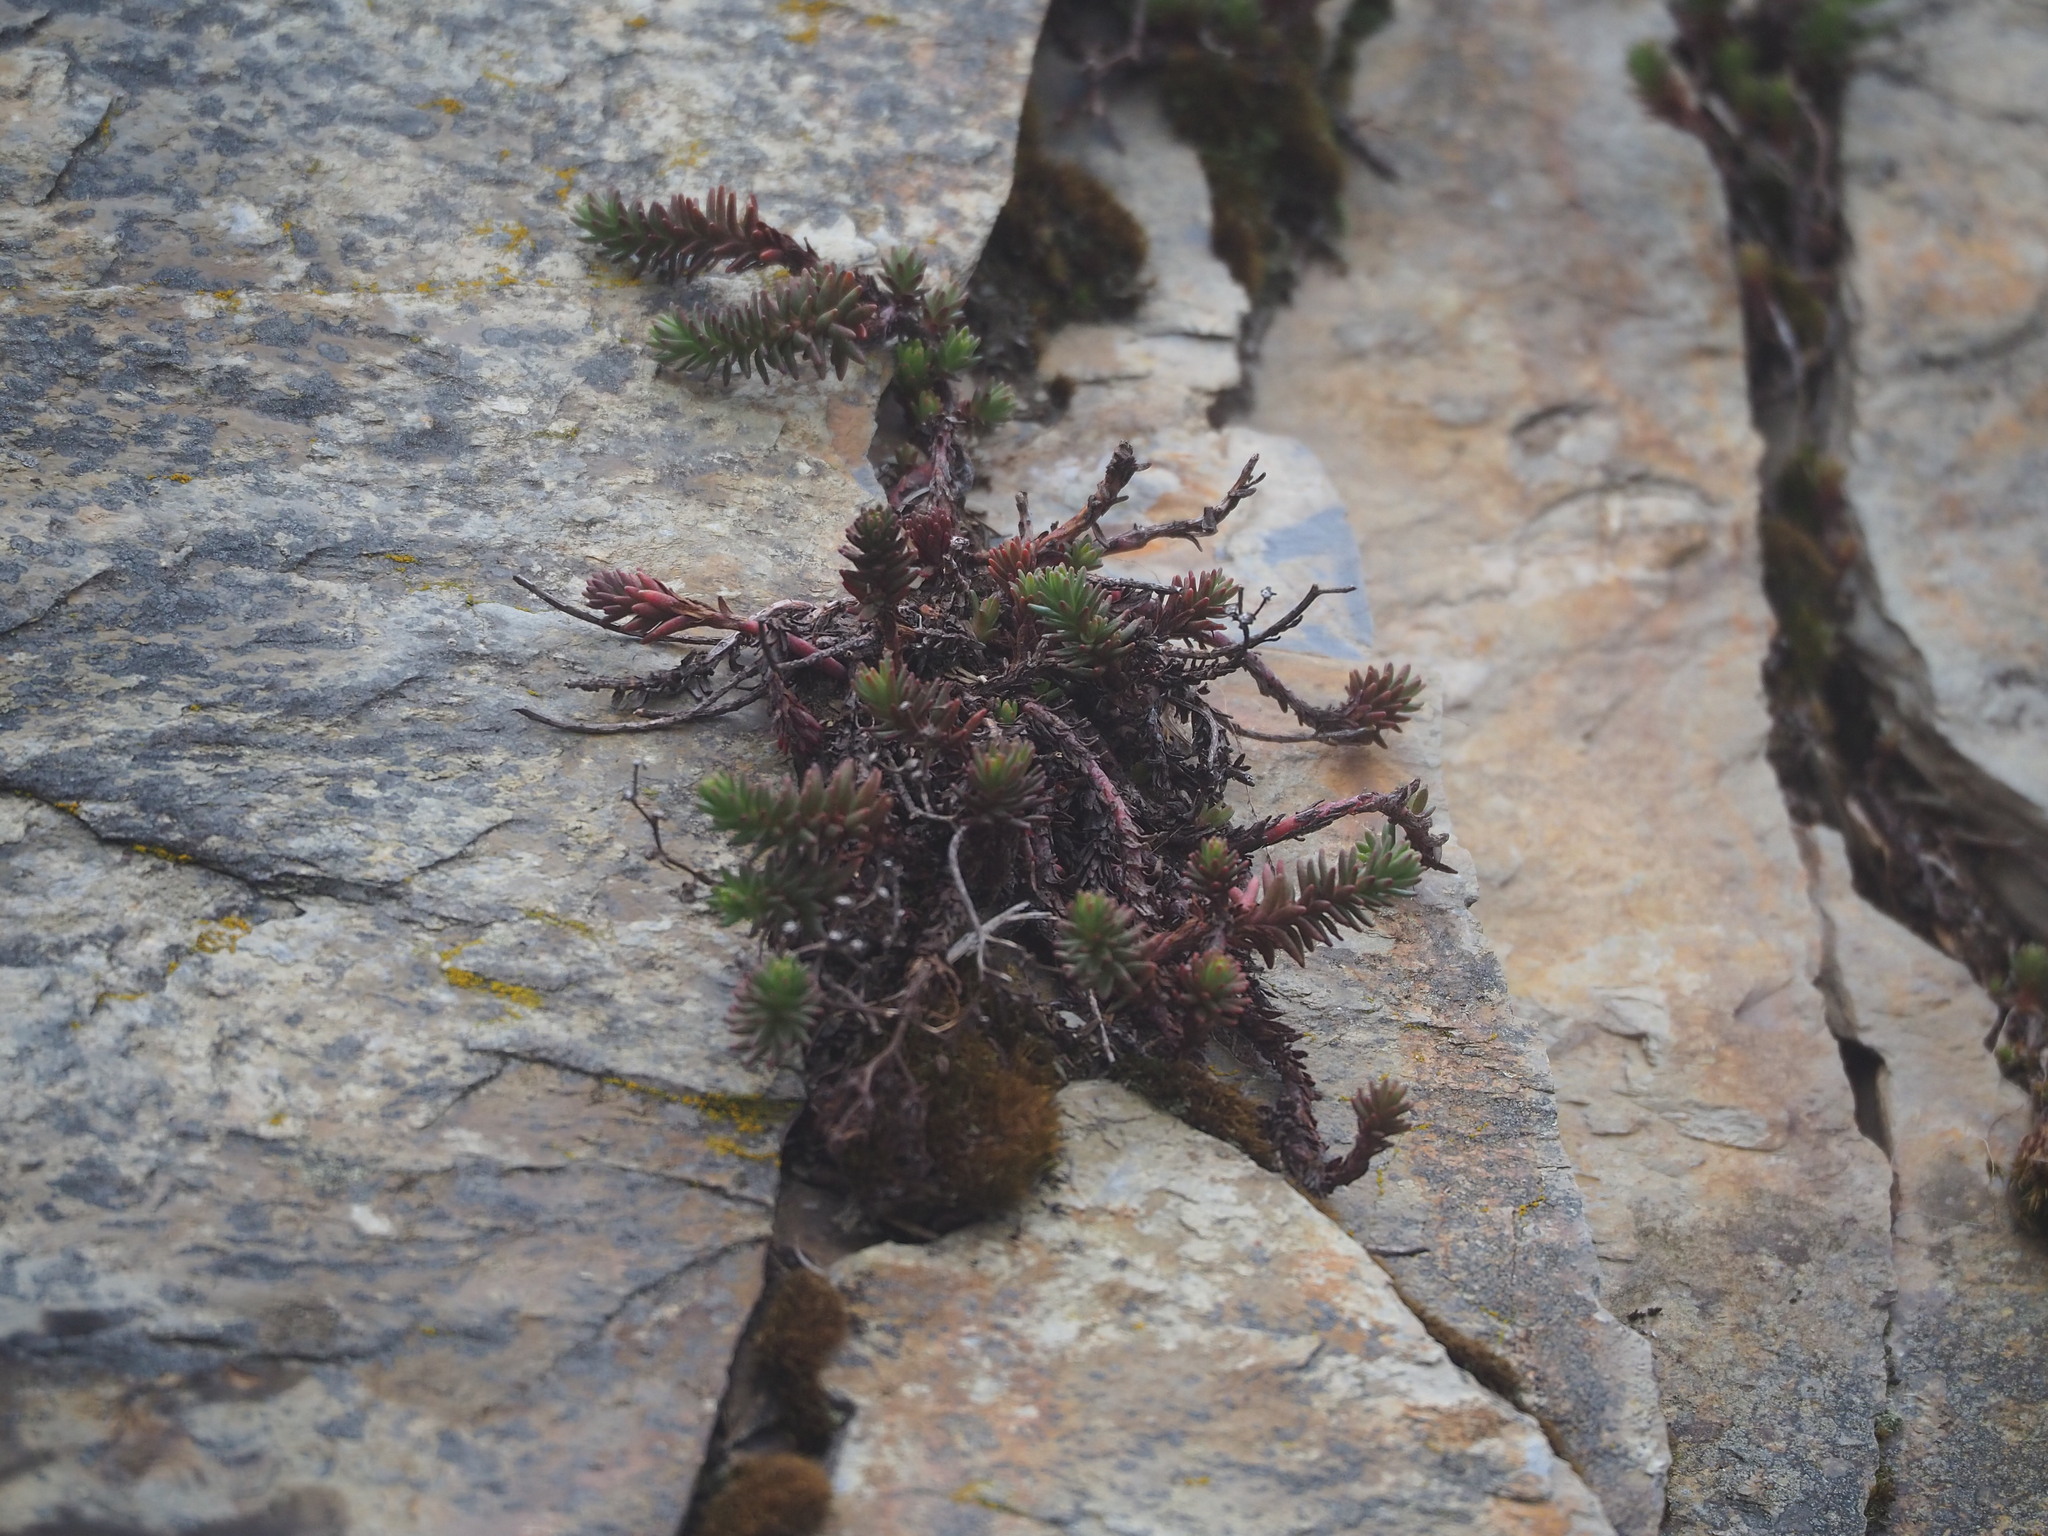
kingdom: Plantae
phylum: Tracheophyta
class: Magnoliopsida
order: Saxifragales
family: Crassulaceae
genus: Sedum
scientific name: Sedum morrisonense
